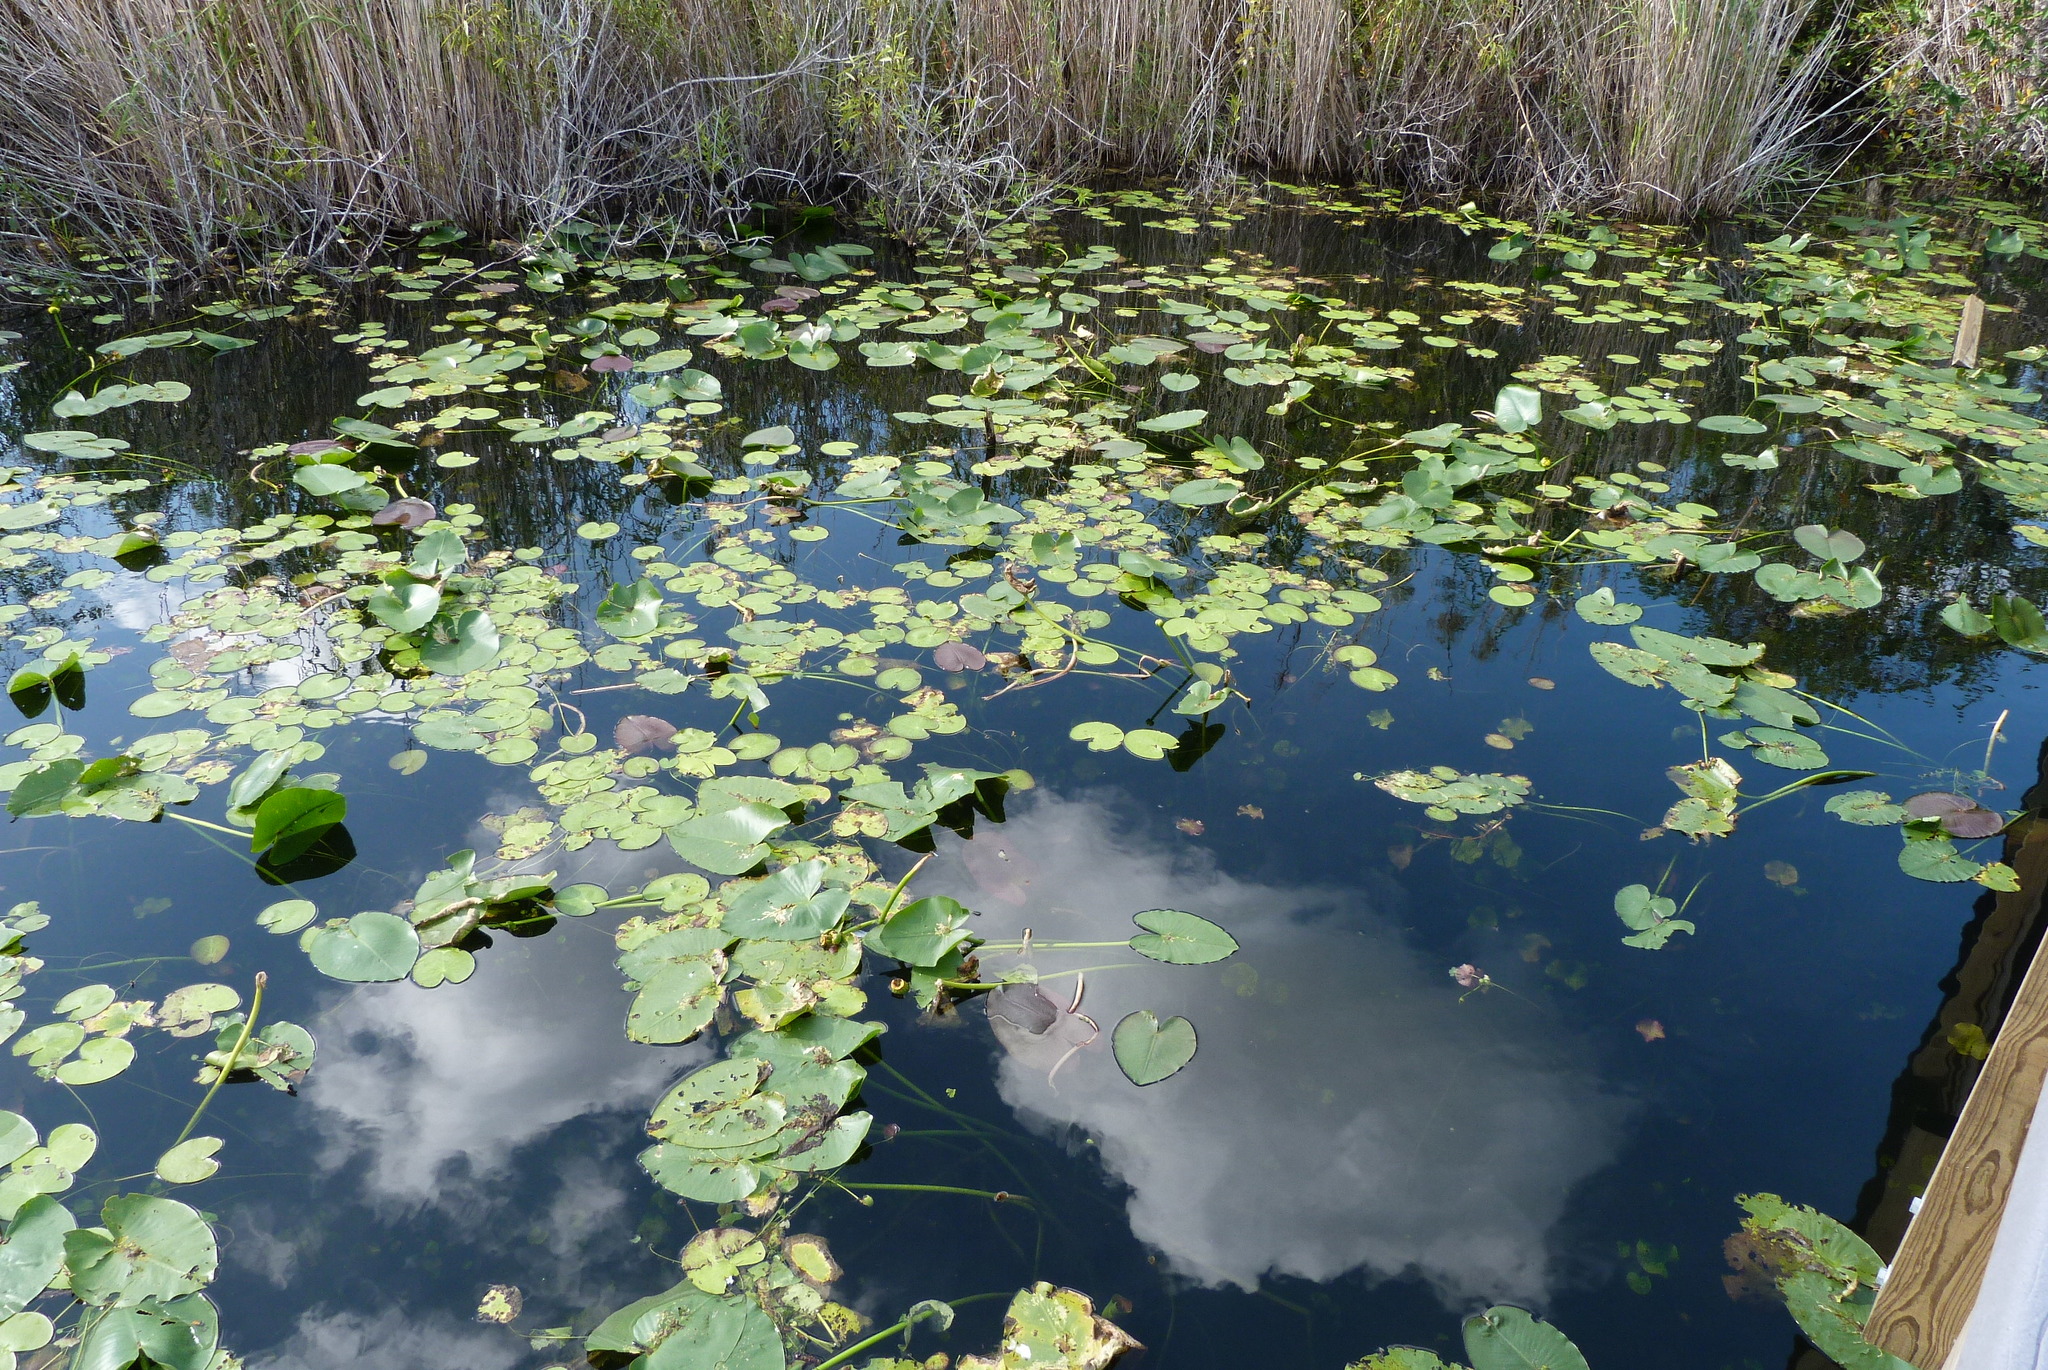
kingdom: Plantae
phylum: Tracheophyta
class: Magnoliopsida
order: Nymphaeales
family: Nymphaeaceae
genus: Nuphar
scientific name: Nuphar advena
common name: Spatter-dock
